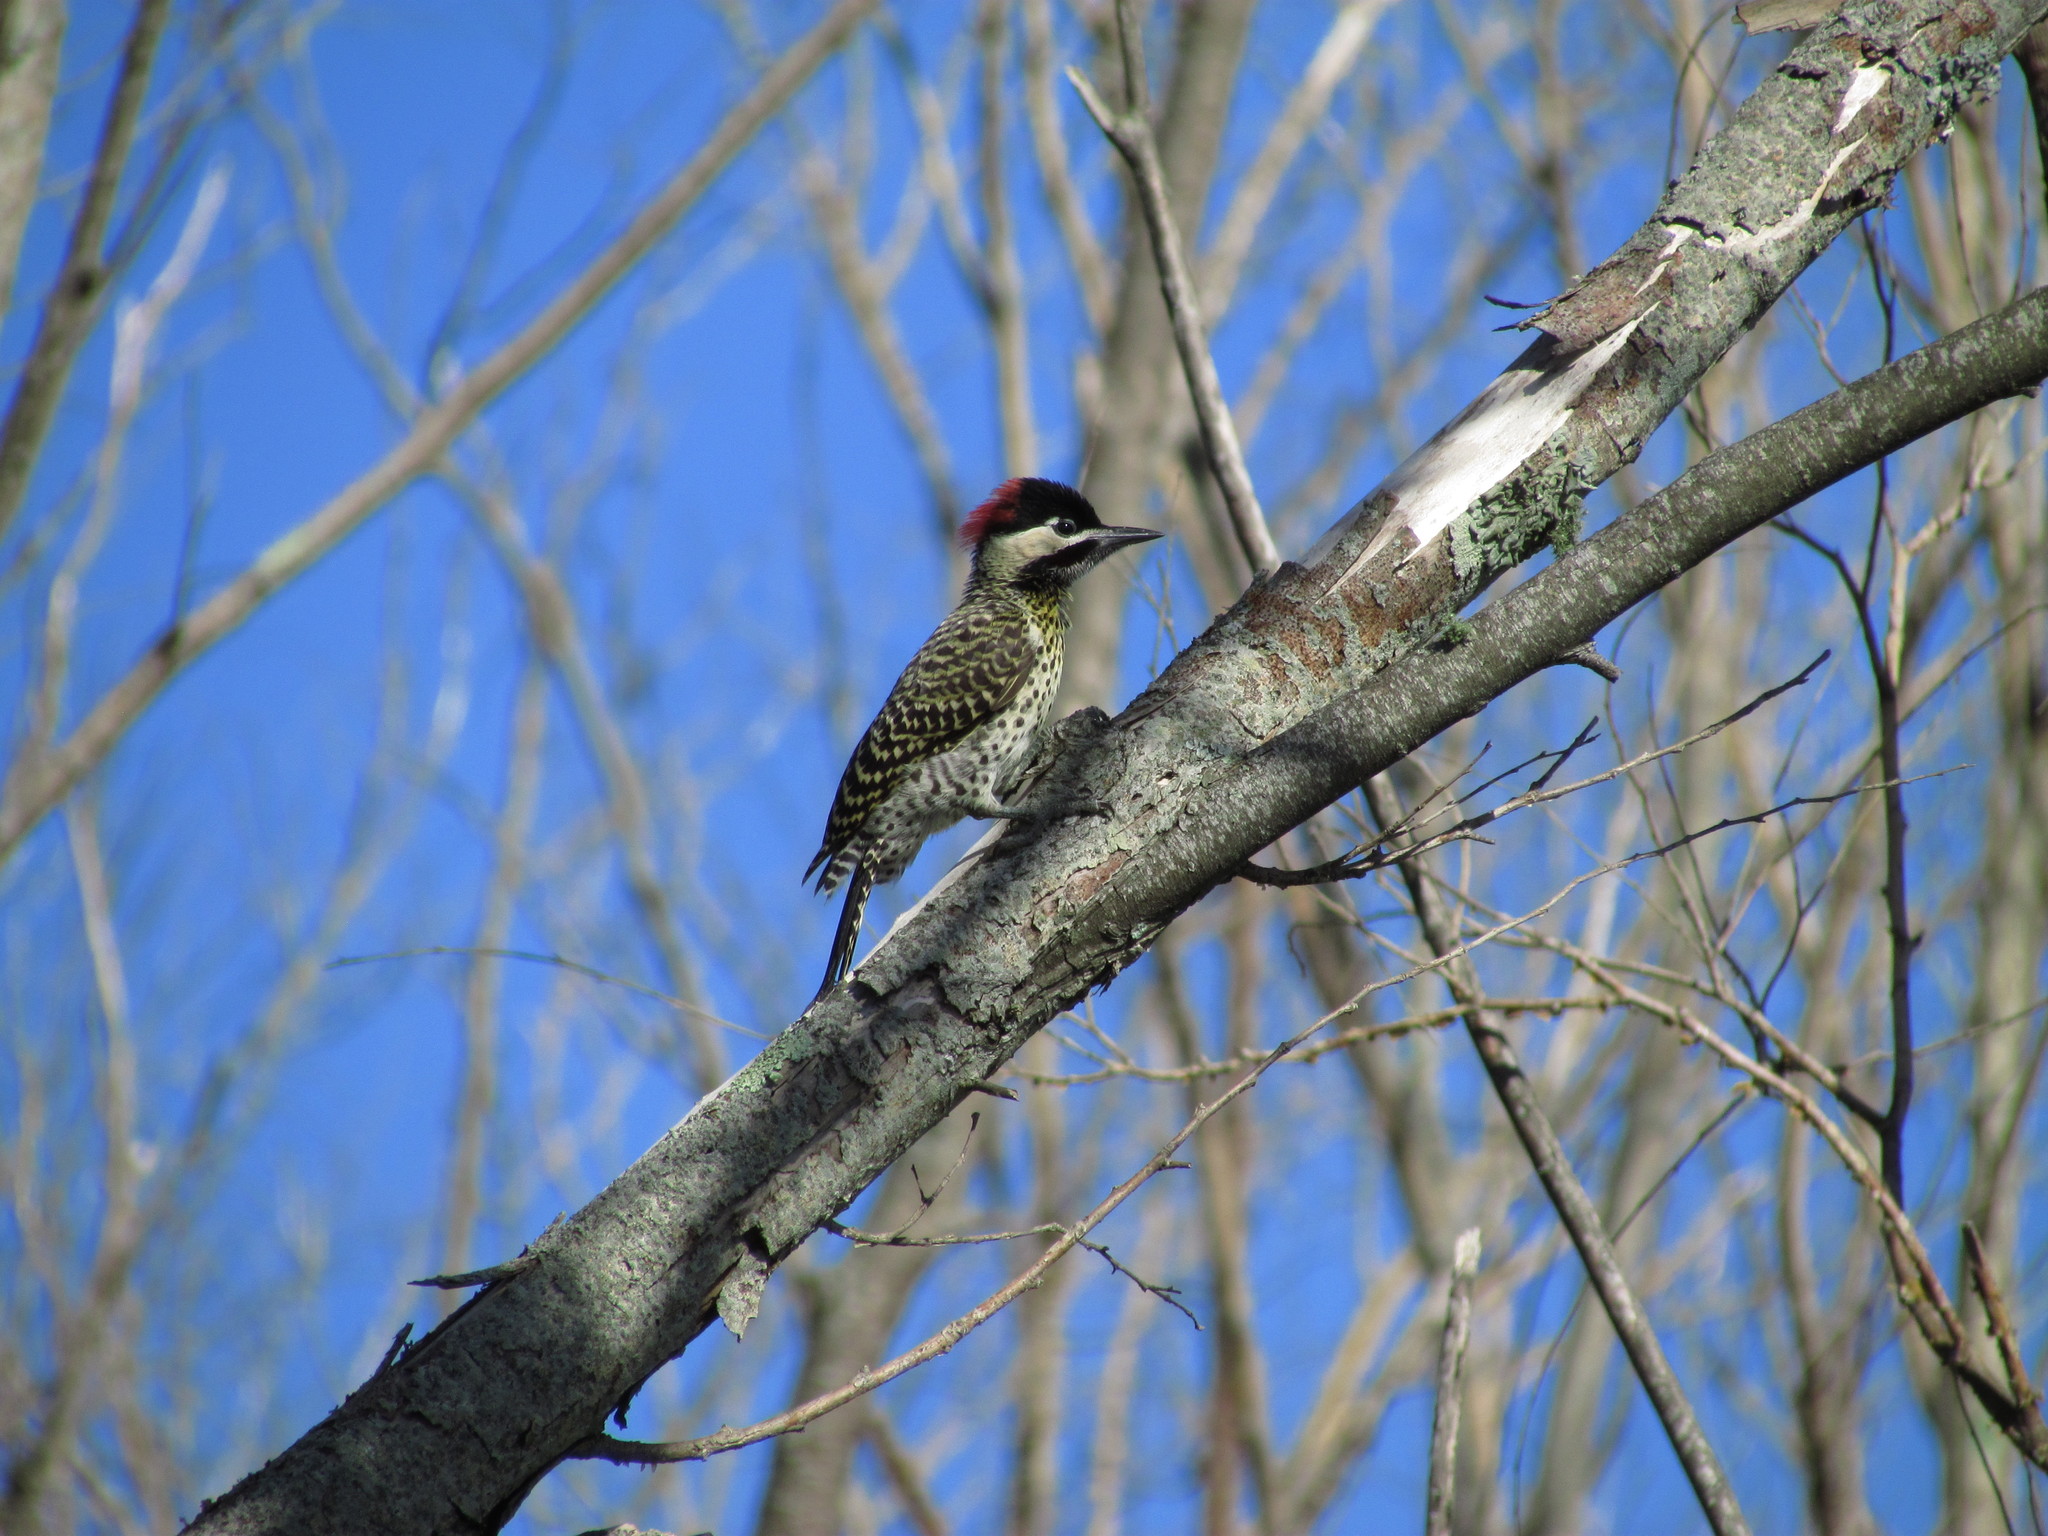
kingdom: Animalia
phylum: Chordata
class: Aves
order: Piciformes
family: Picidae
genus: Colaptes
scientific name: Colaptes melanochloros
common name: Green-barred woodpecker
